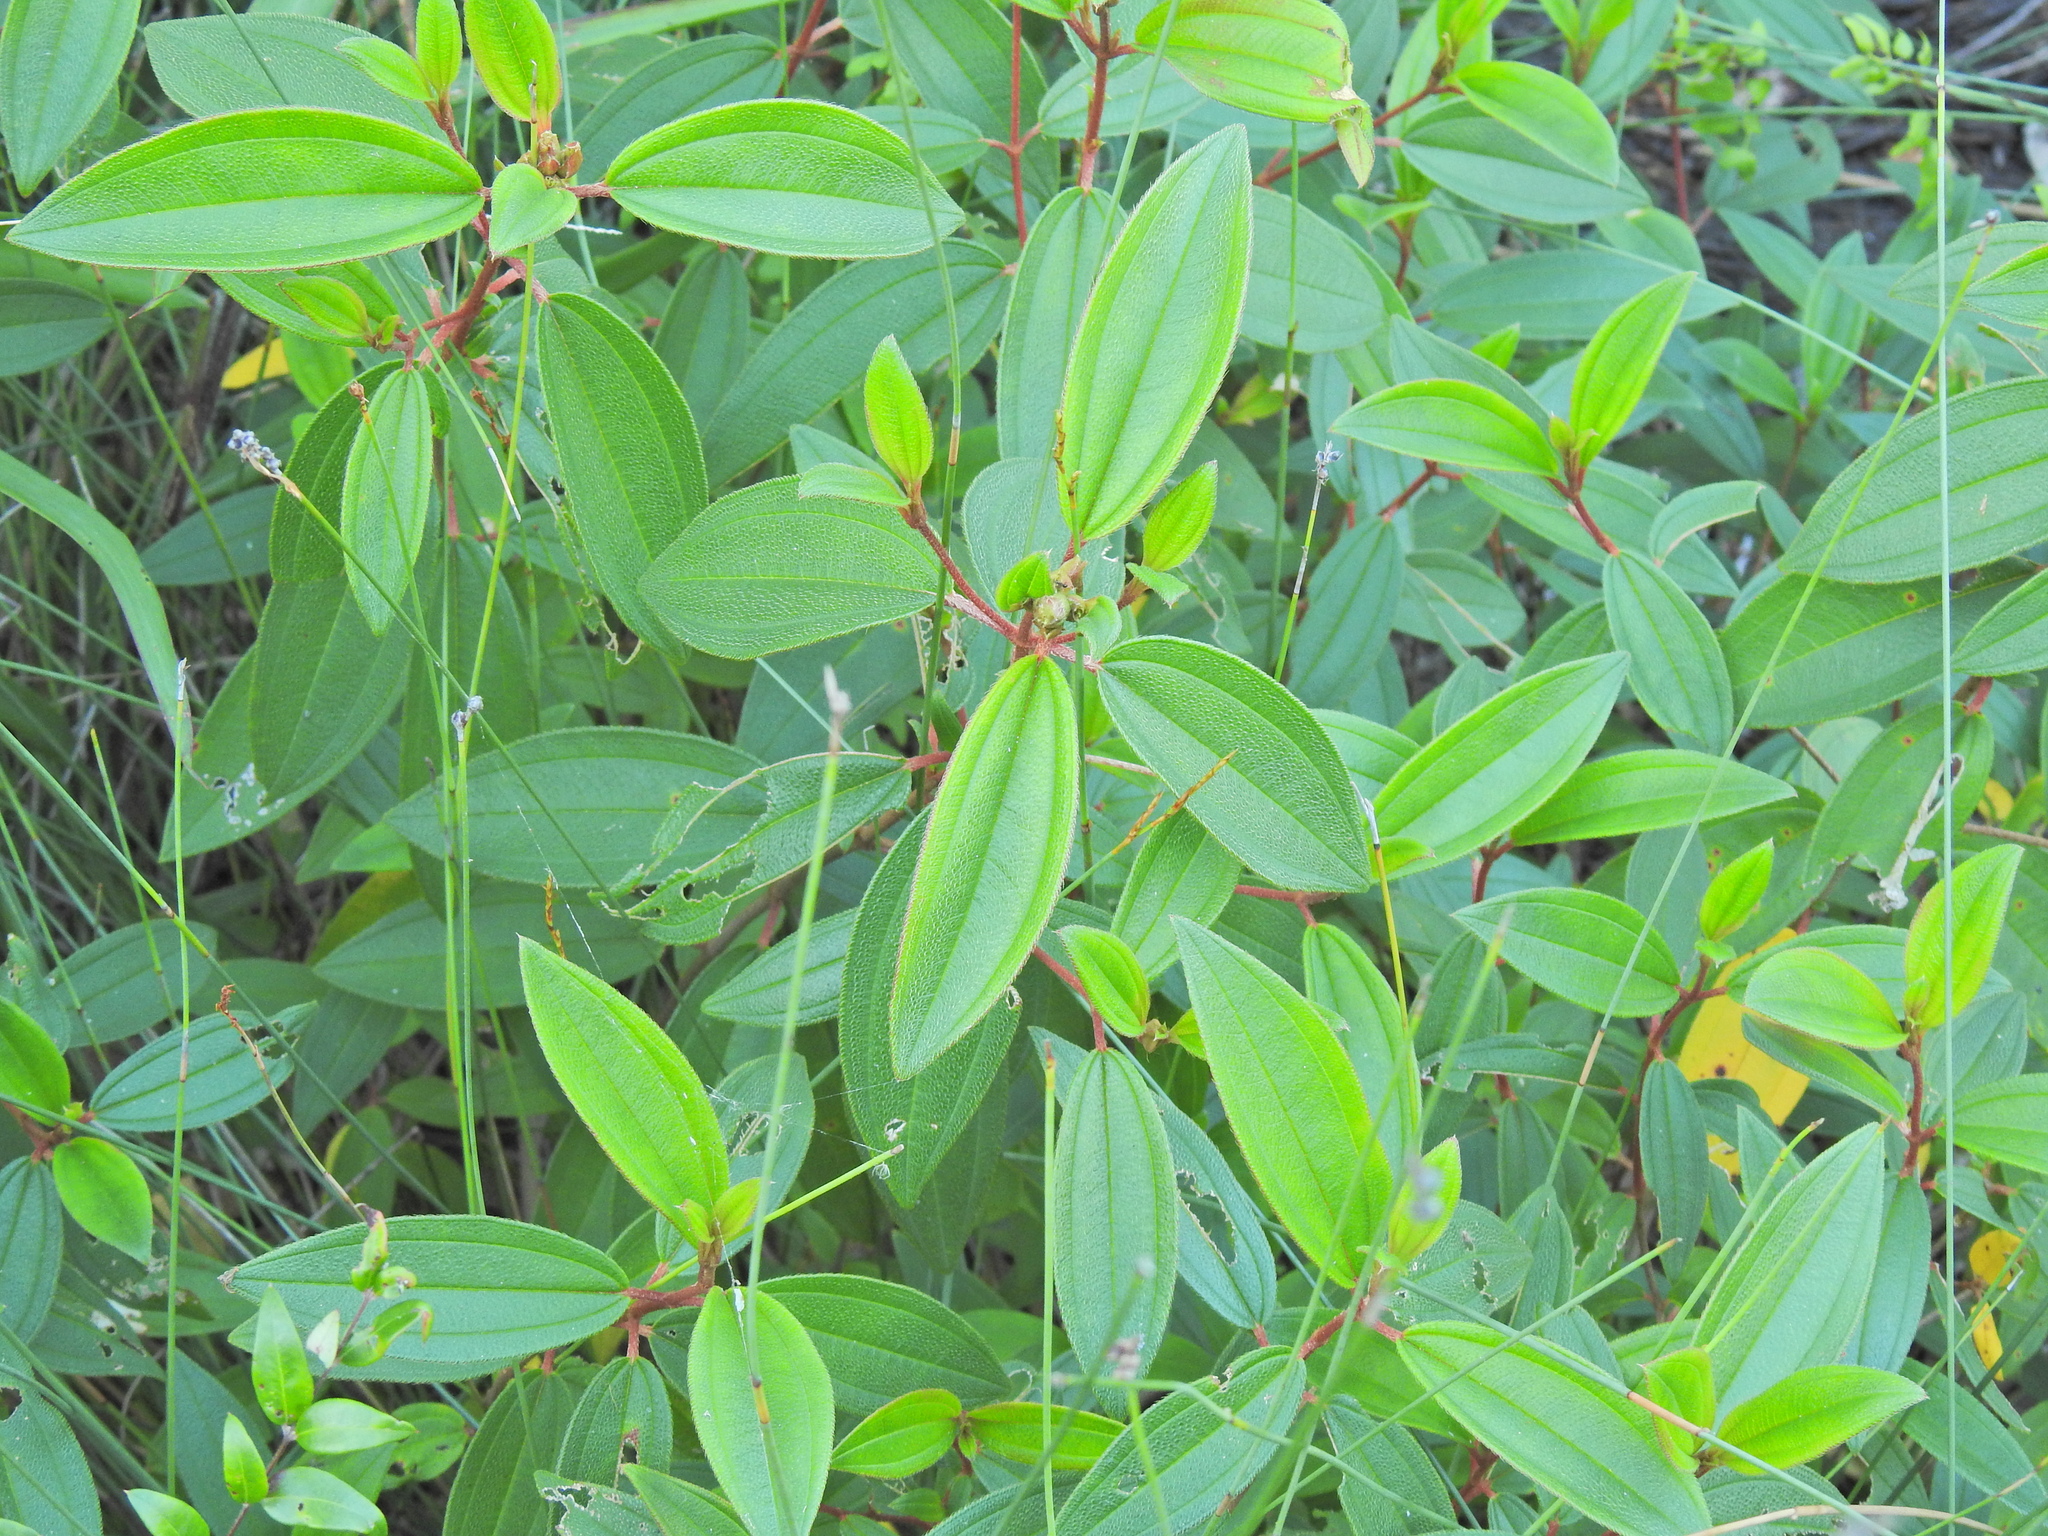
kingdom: Plantae
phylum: Tracheophyta
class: Magnoliopsida
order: Myrtales
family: Melastomataceae
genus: Melastoma
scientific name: Melastoma malabathricum
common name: Indian-rhododendron
